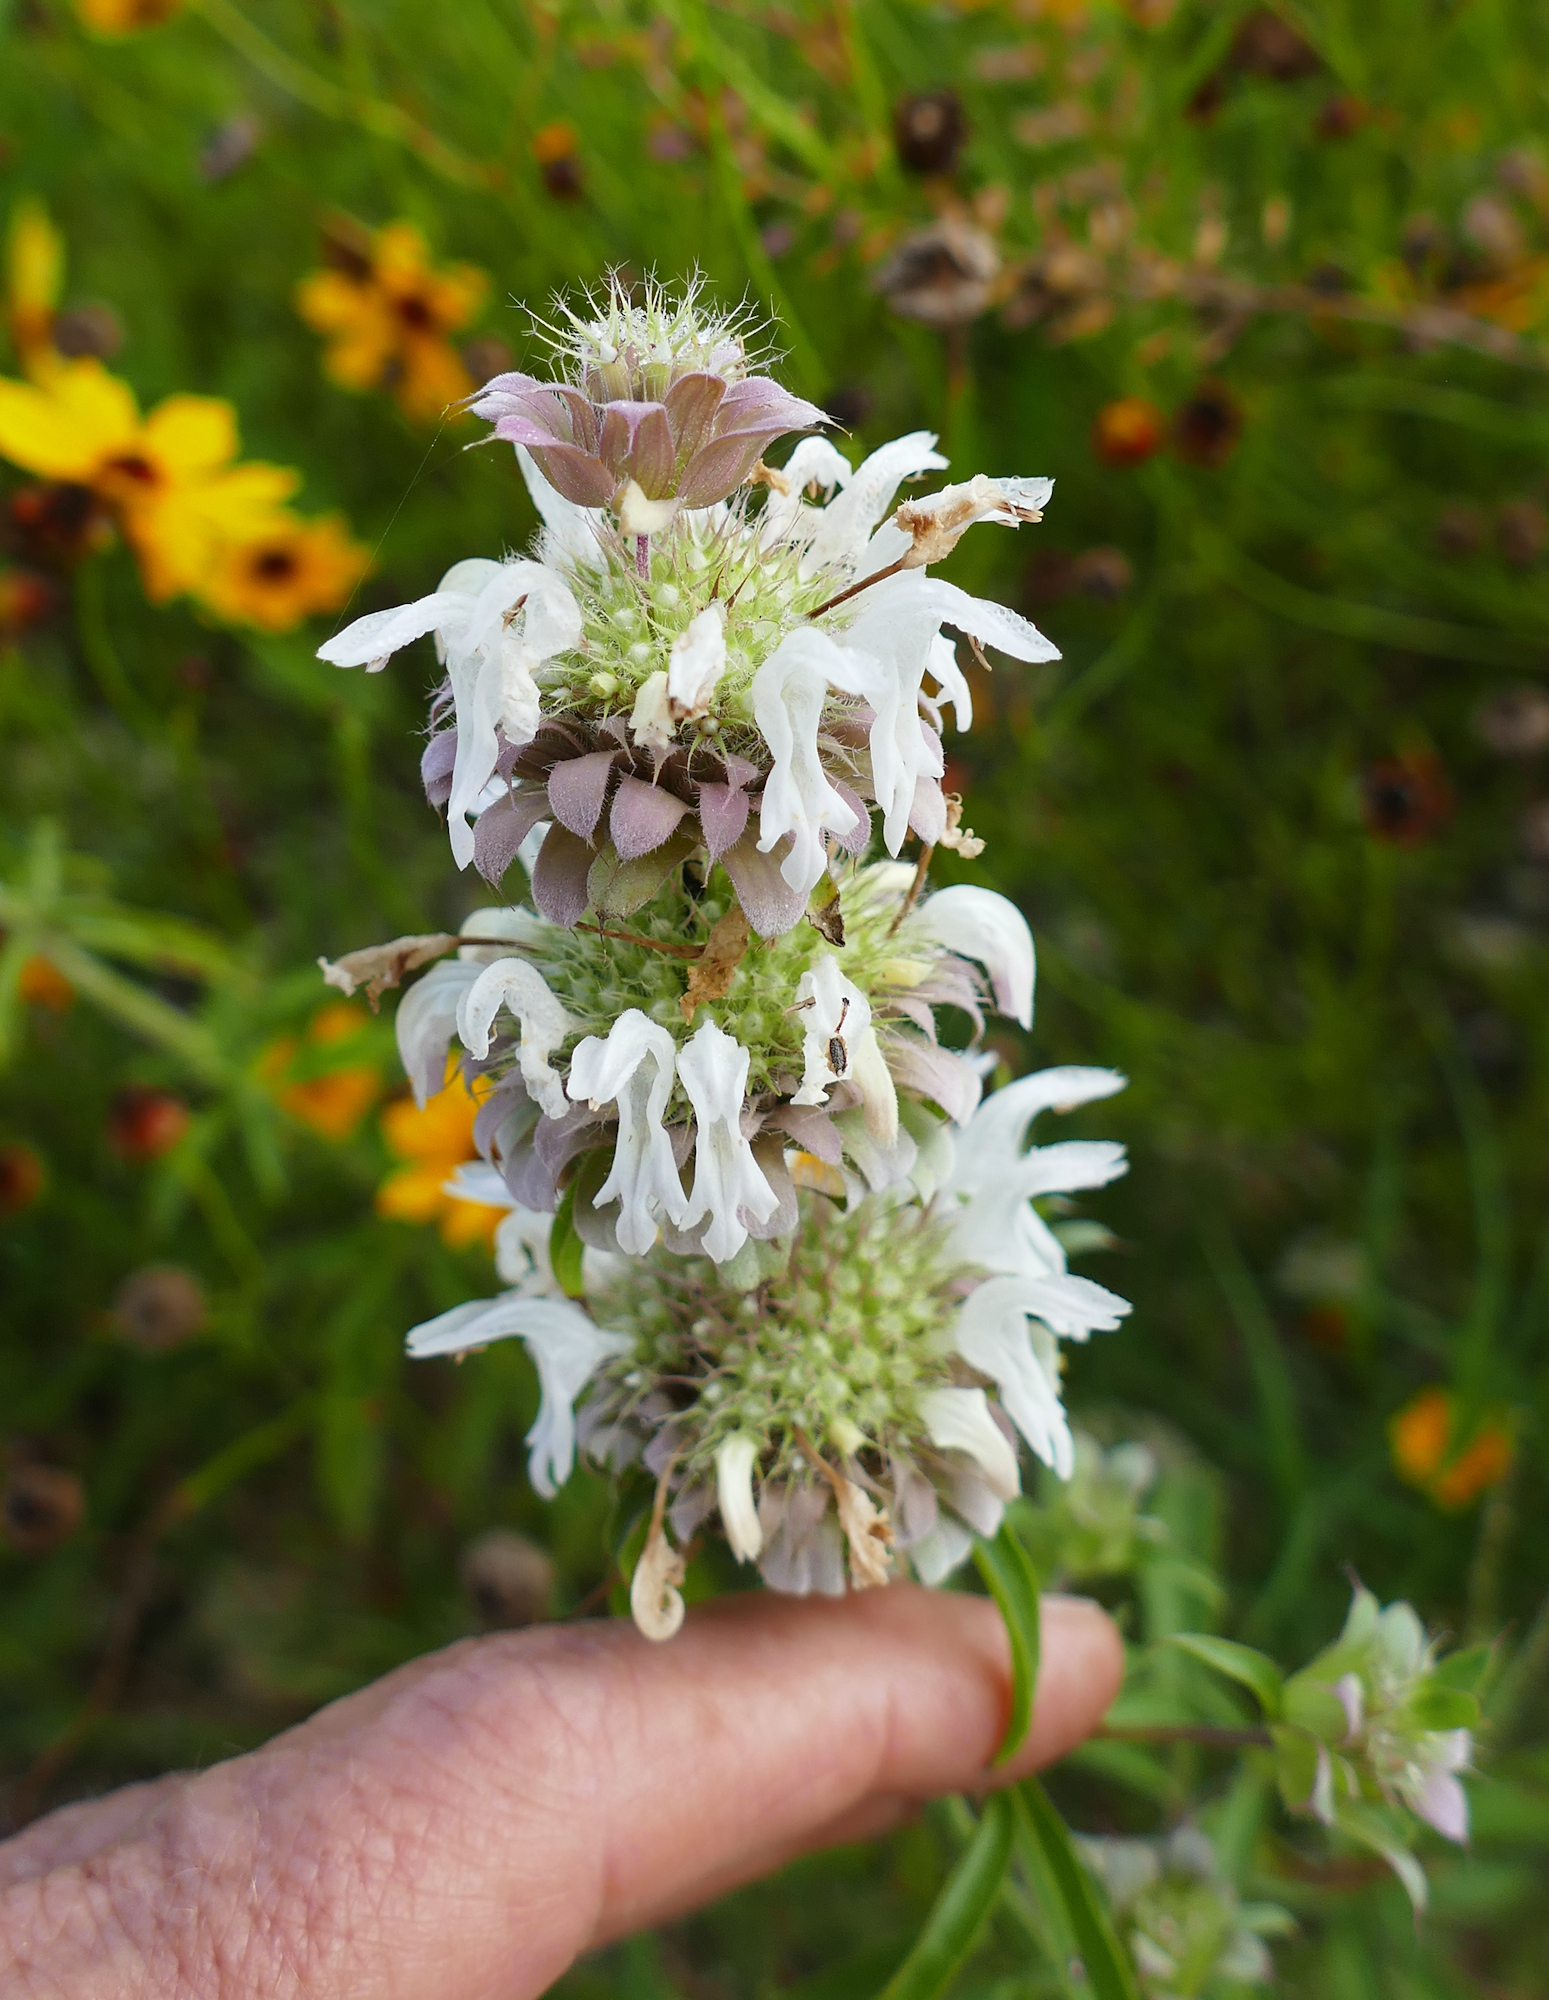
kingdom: Plantae
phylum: Tracheophyta
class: Magnoliopsida
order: Lamiales
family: Lamiaceae
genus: Monarda
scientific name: Monarda citriodora
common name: Lemon beebalm
